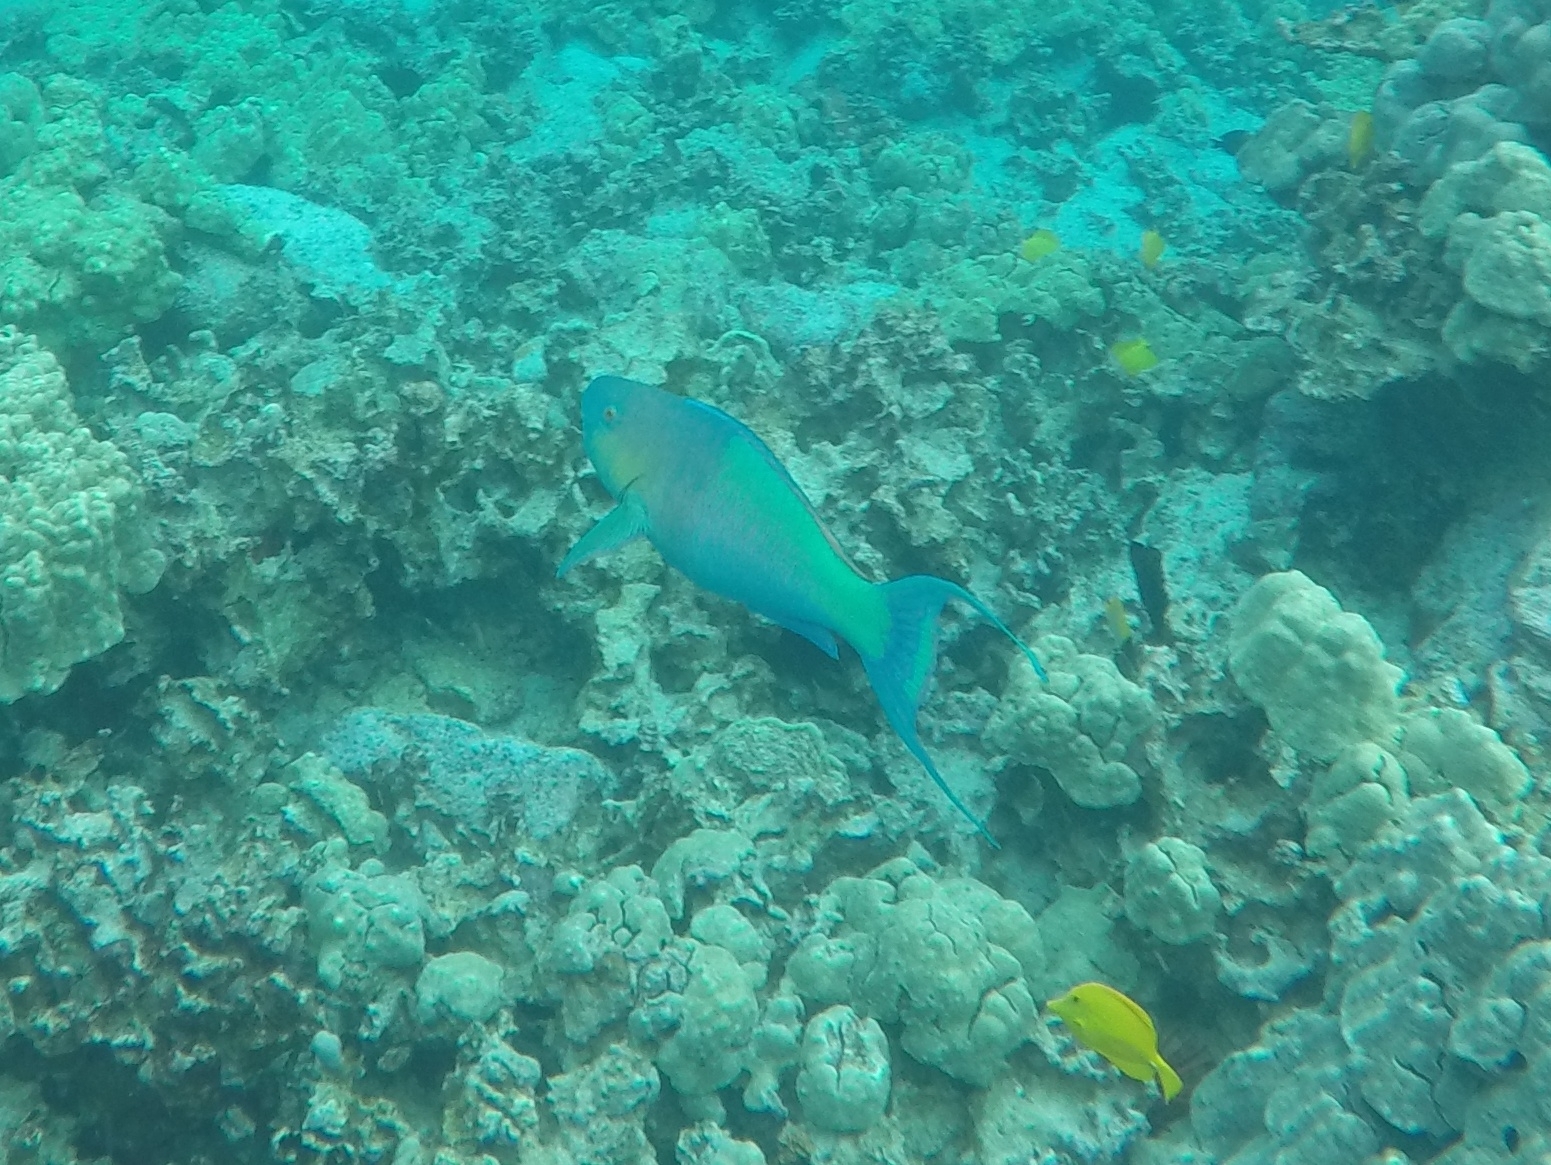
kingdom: Animalia
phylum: Chordata
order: Perciformes
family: Scaridae
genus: Scarus
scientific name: Scarus rubroviolaceus
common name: Ember parrotfish
